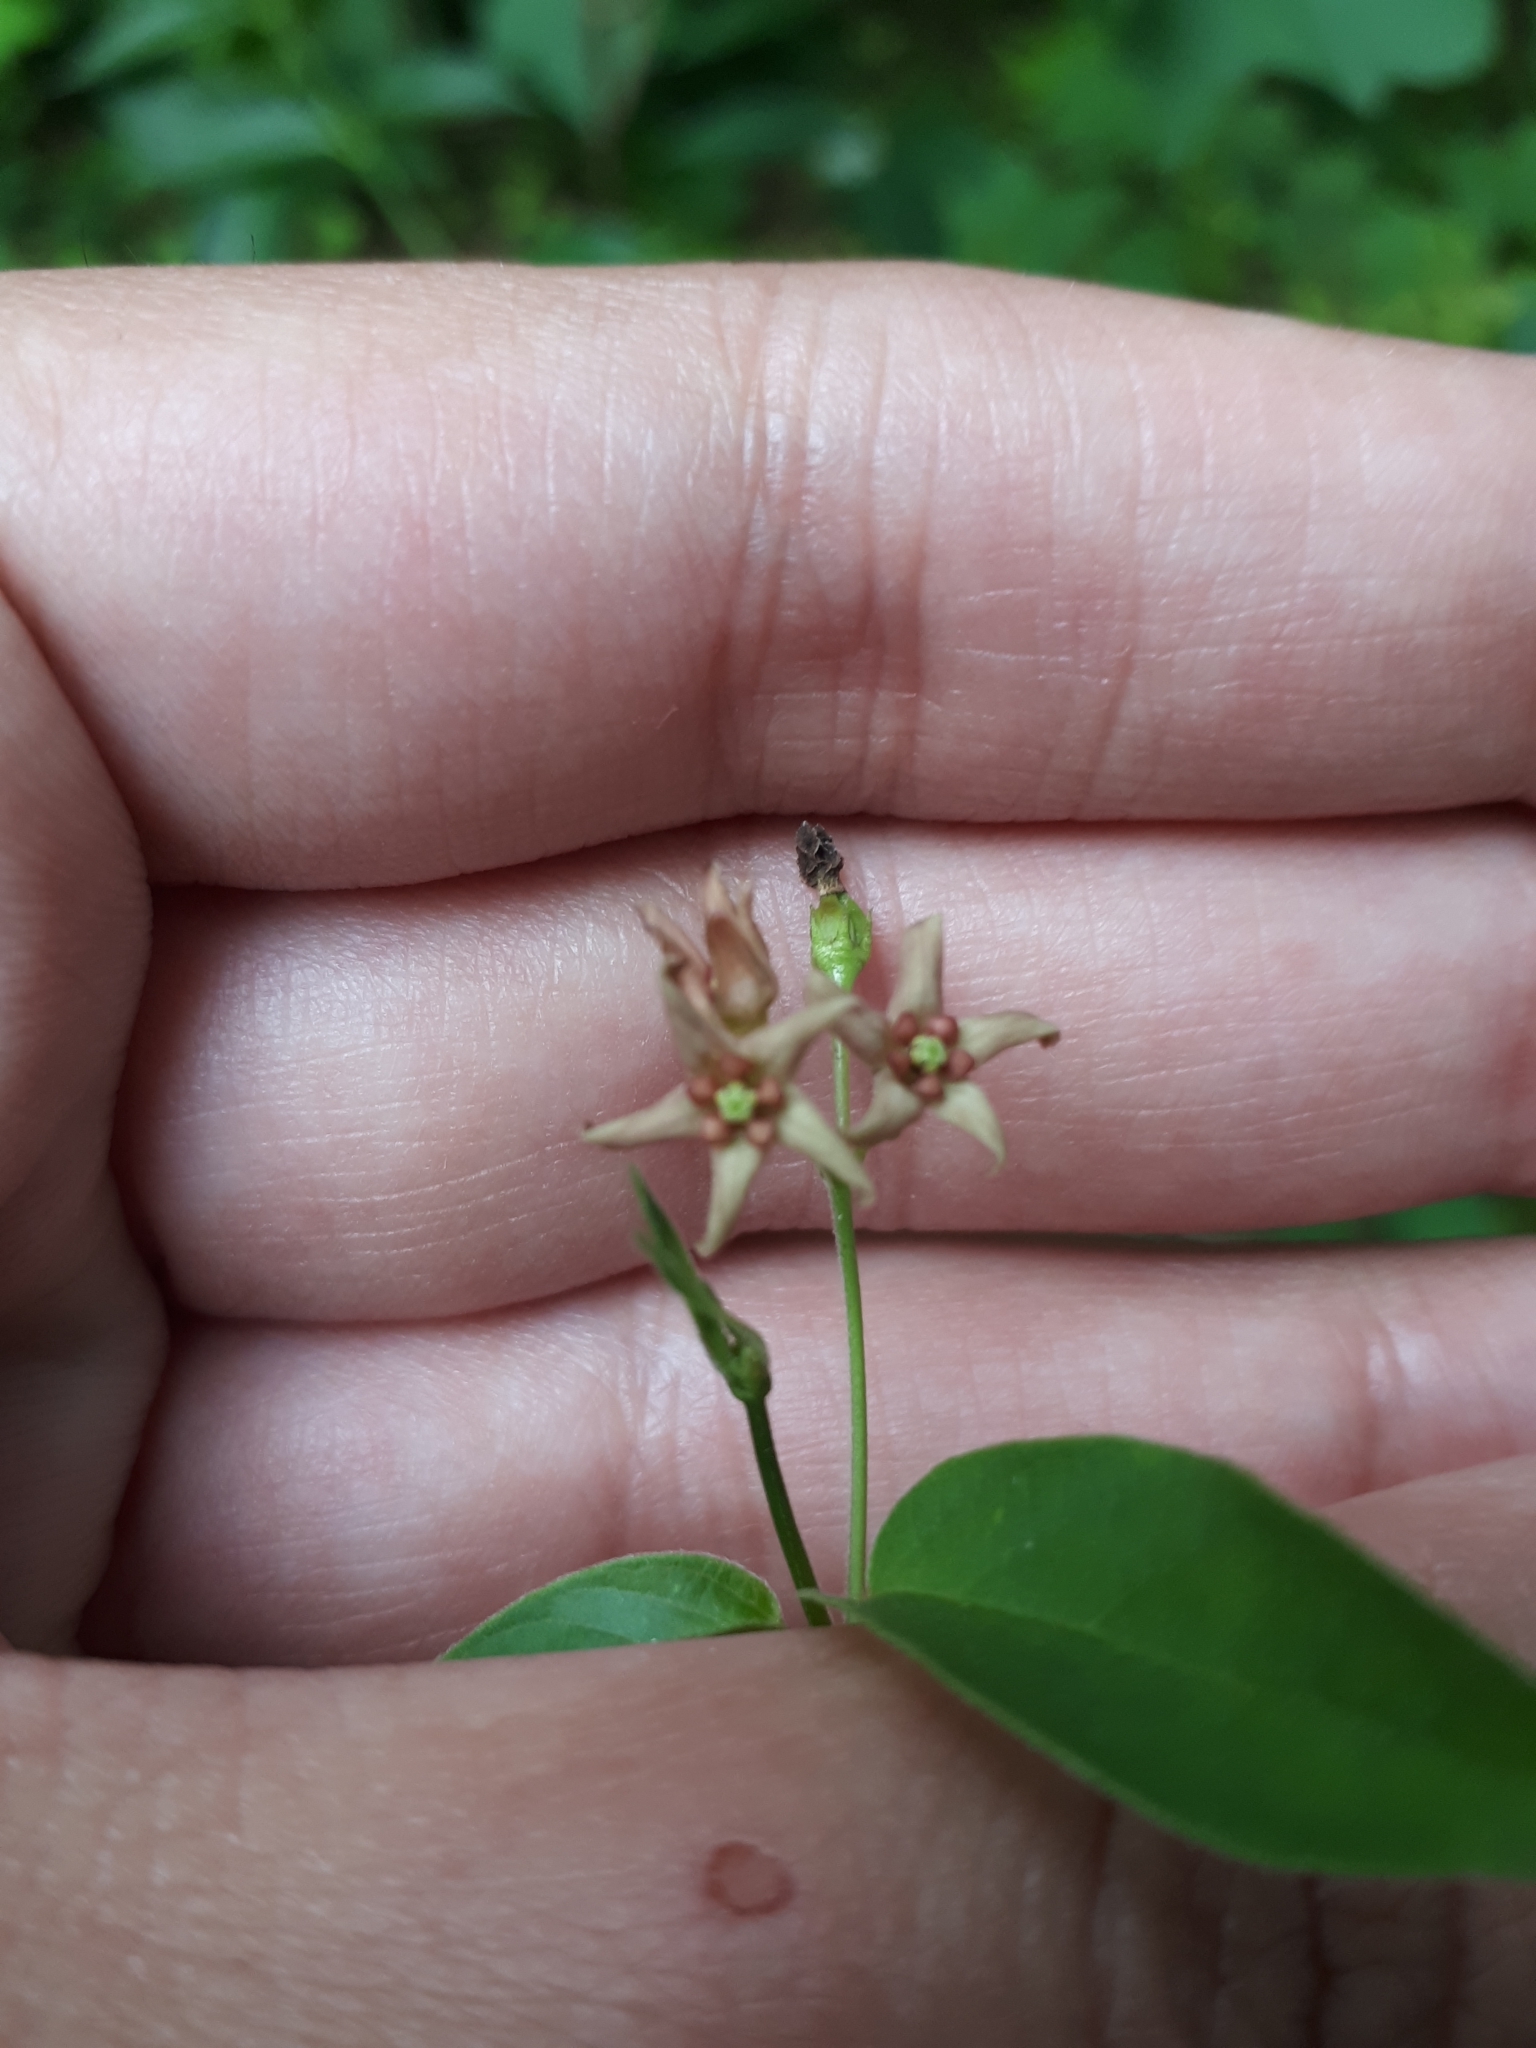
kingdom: Plantae
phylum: Tracheophyta
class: Magnoliopsida
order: Gentianales
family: Apocynaceae
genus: Vincetoxicum
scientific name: Vincetoxicum rossicum
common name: Dog-strangling vine
